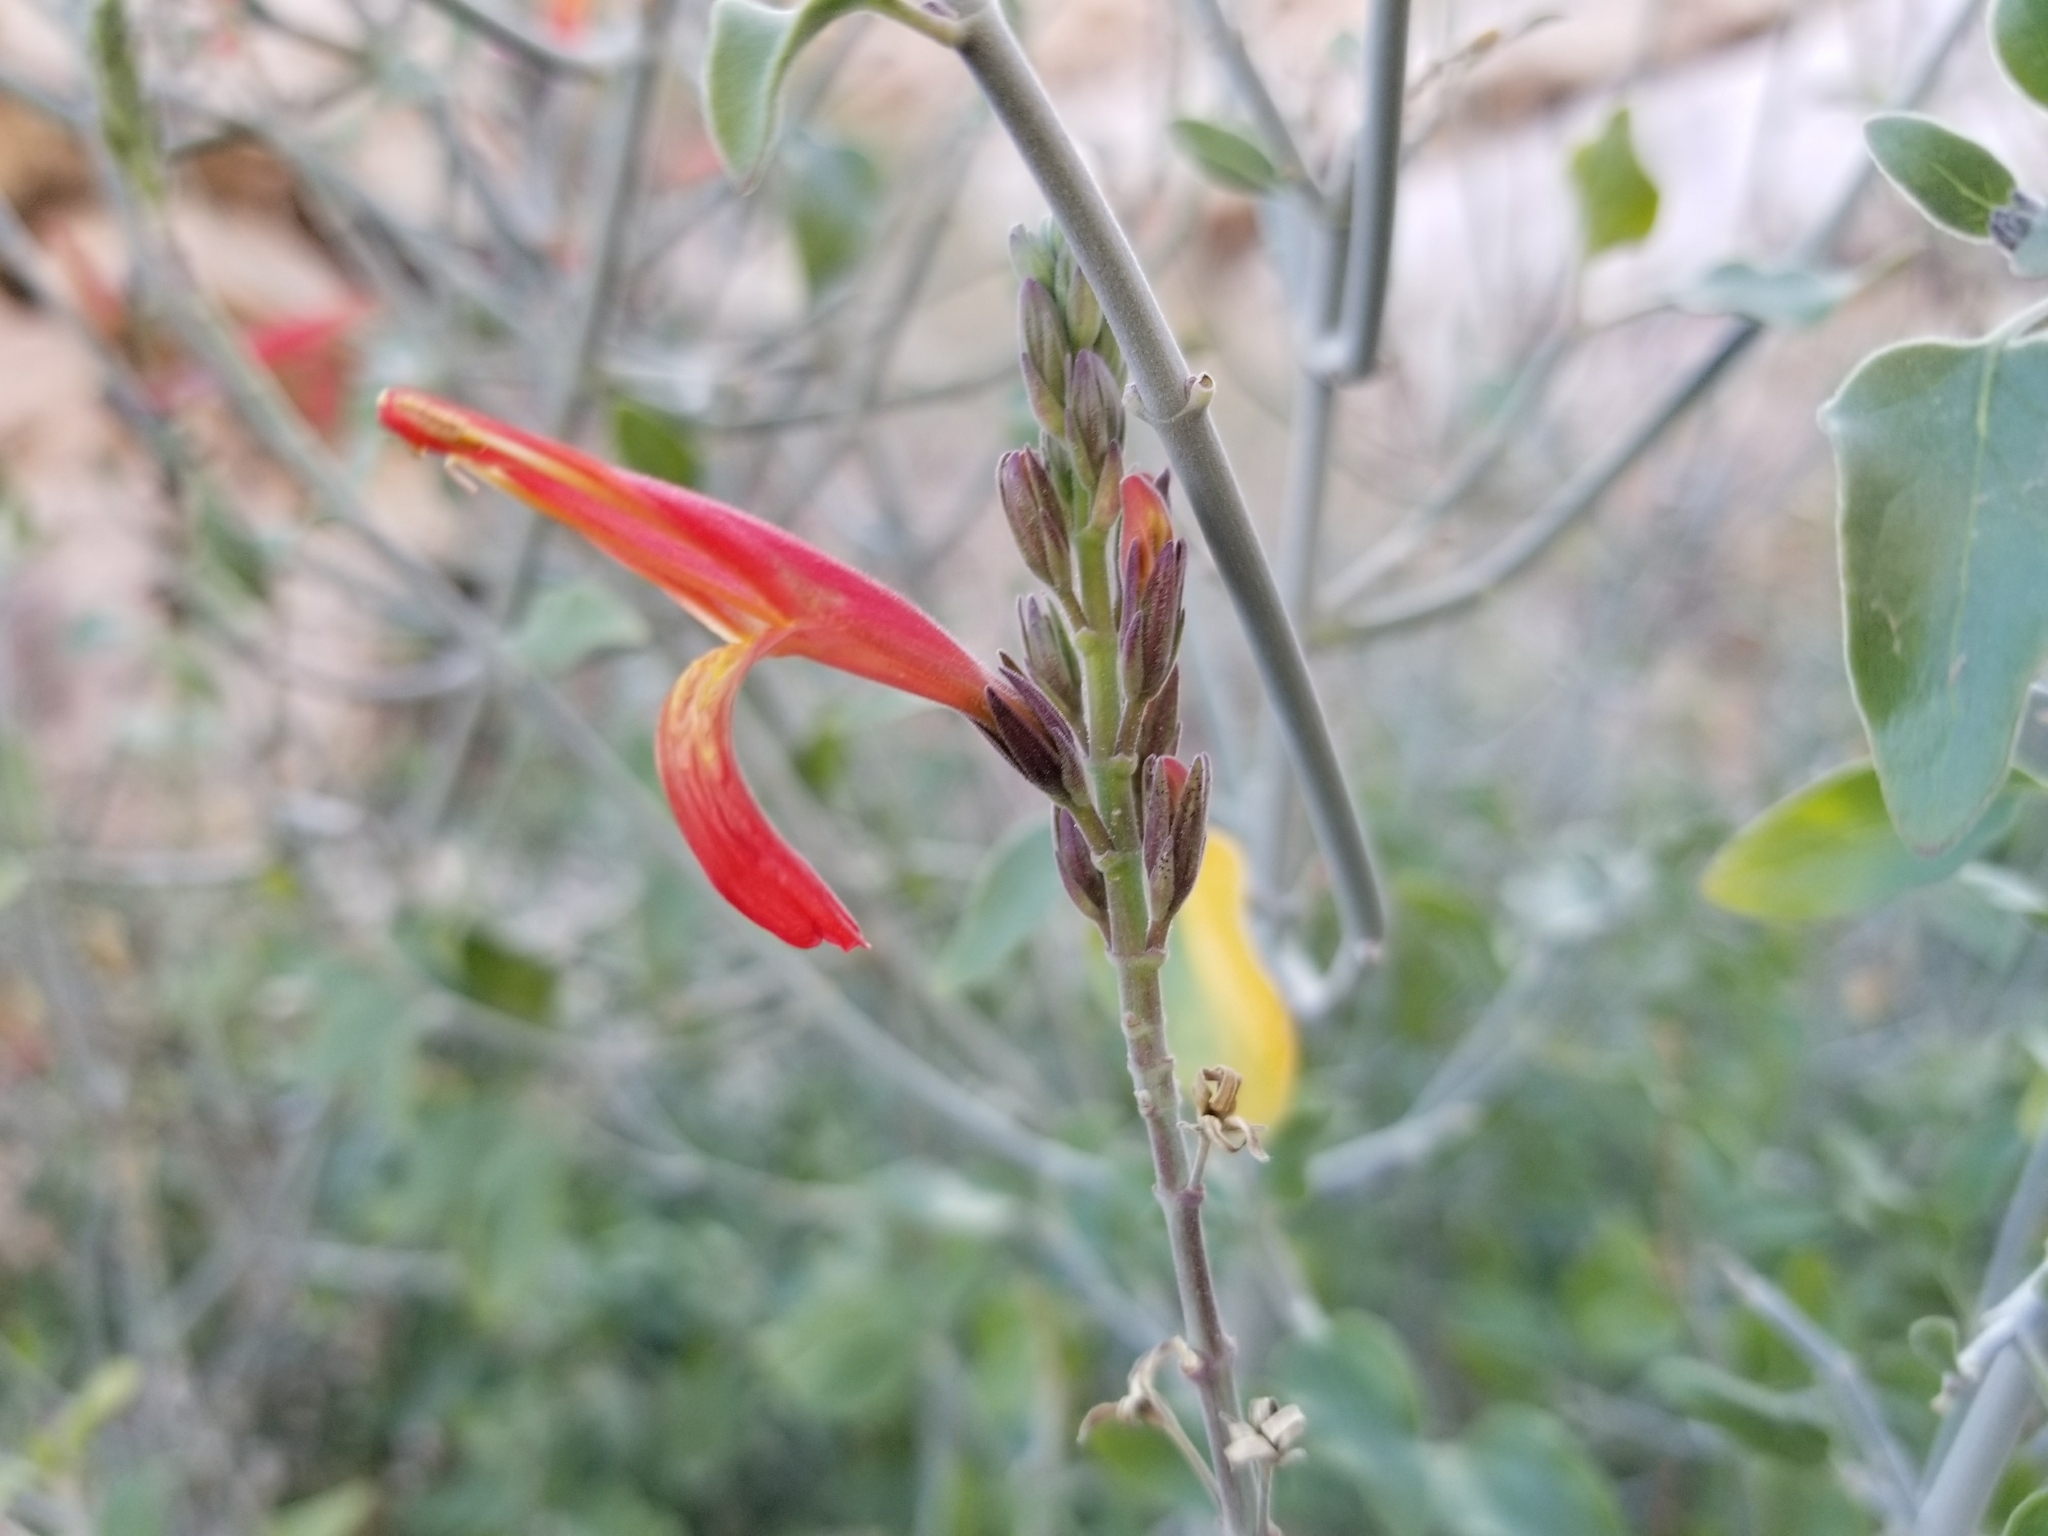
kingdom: Plantae
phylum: Tracheophyta
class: Magnoliopsida
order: Lamiales
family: Acanthaceae
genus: Justicia
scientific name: Justicia californica
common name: Chuparosa-honeysuckle
